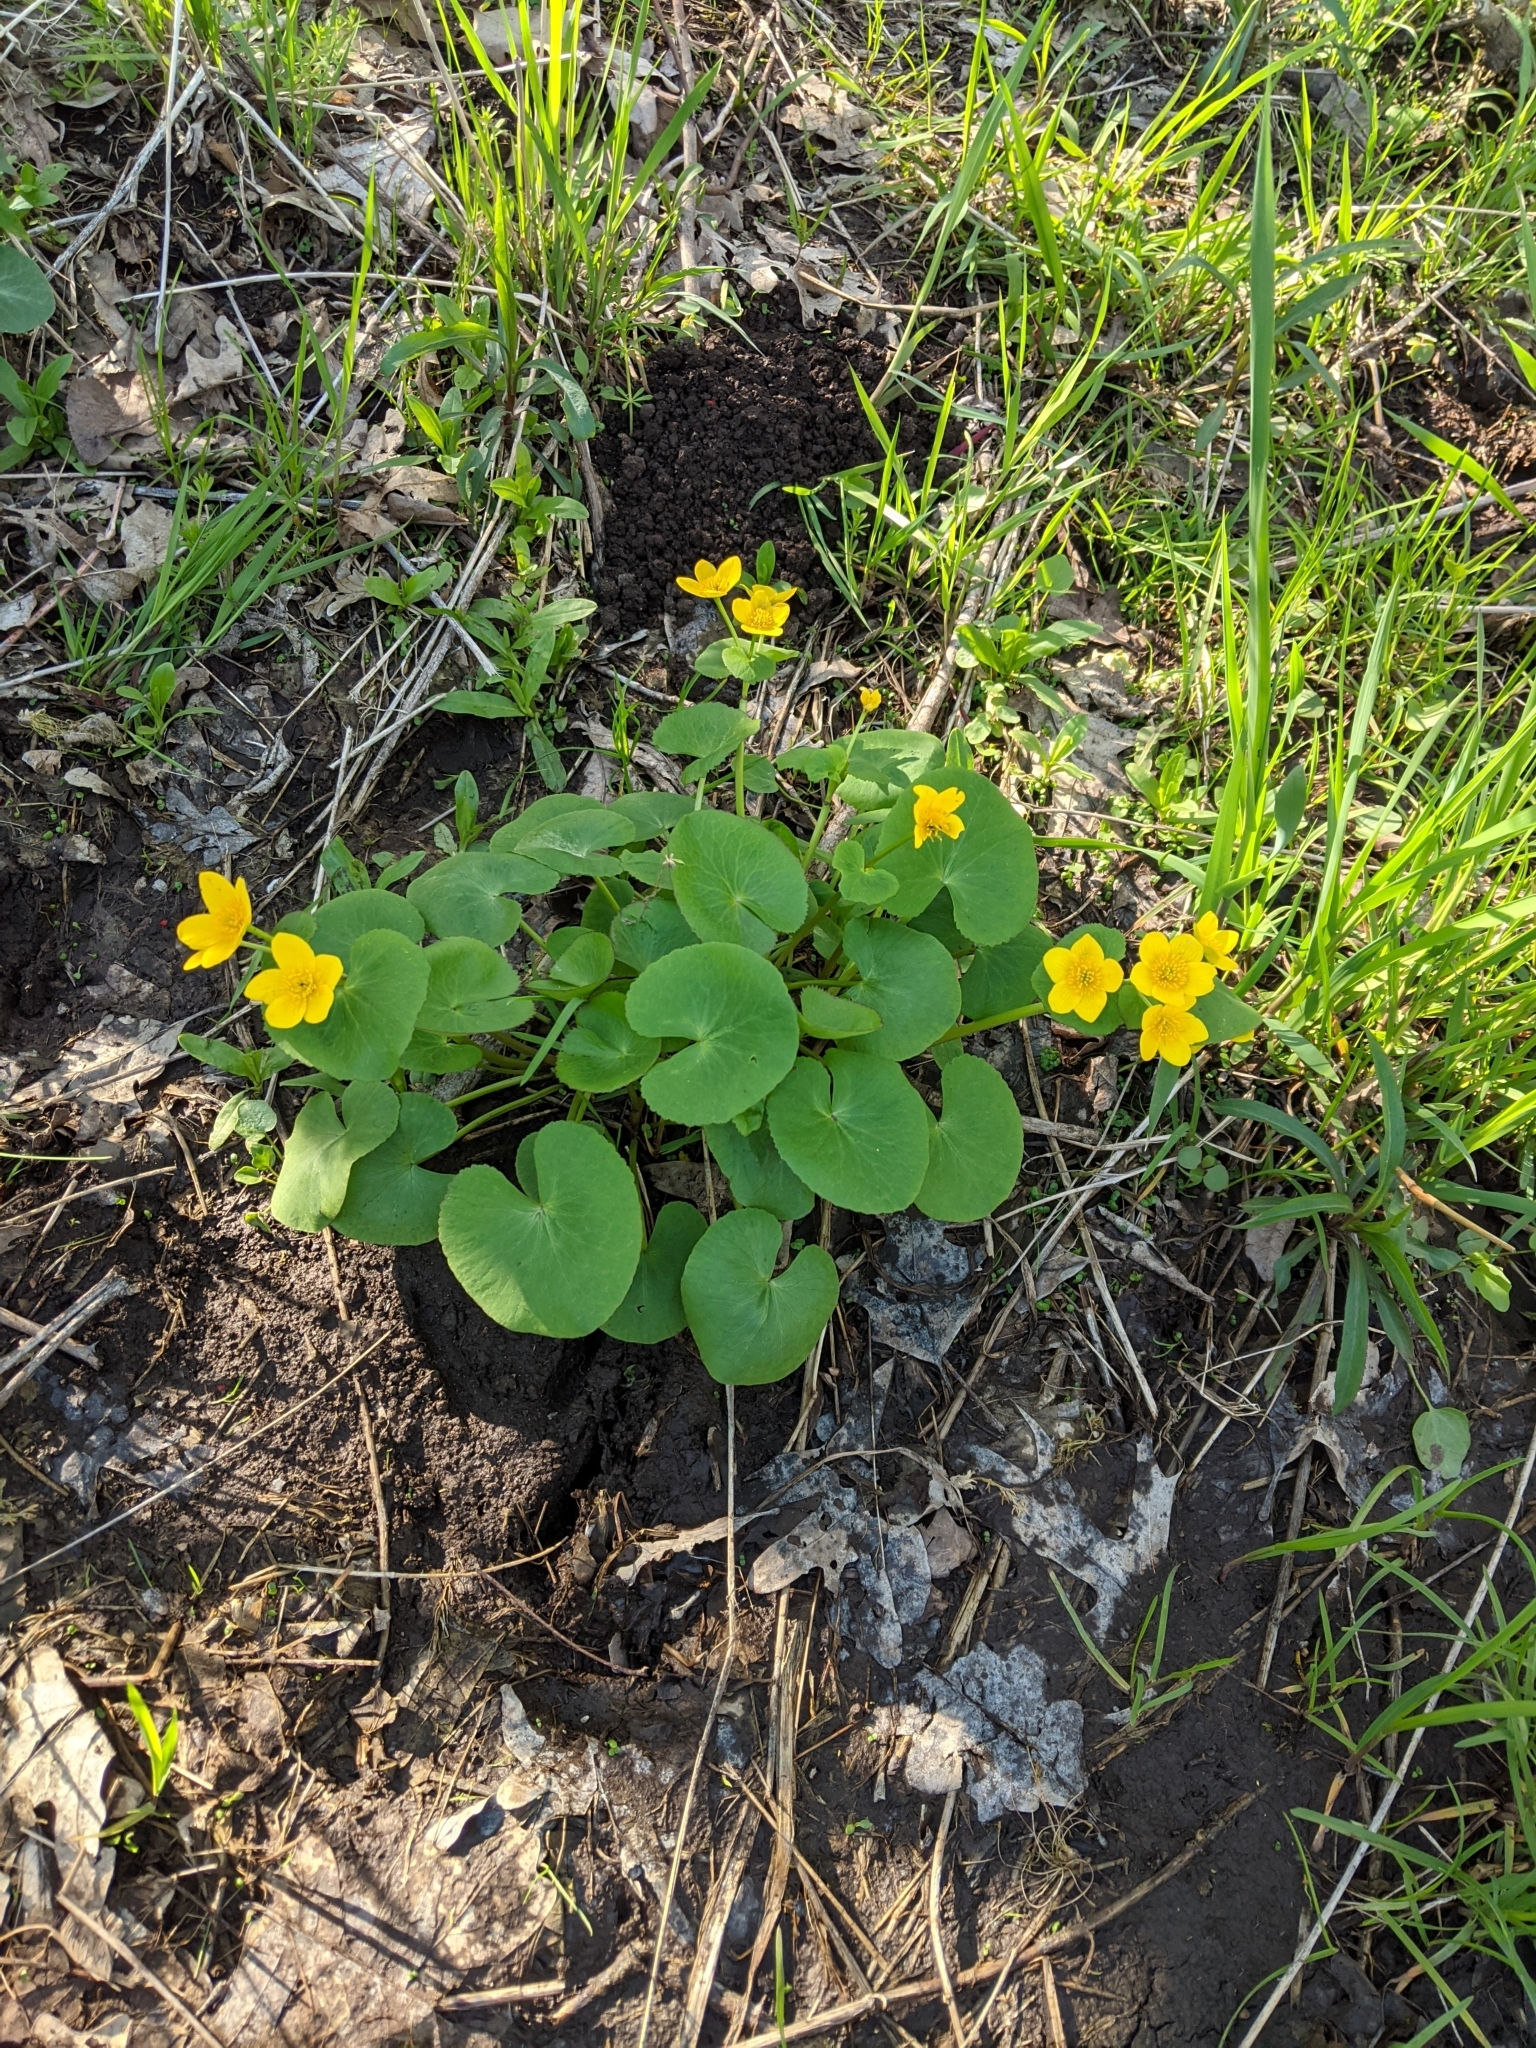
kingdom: Plantae
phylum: Tracheophyta
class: Magnoliopsida
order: Ranunculales
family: Ranunculaceae
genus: Caltha
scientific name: Caltha palustris
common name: Marsh marigold
